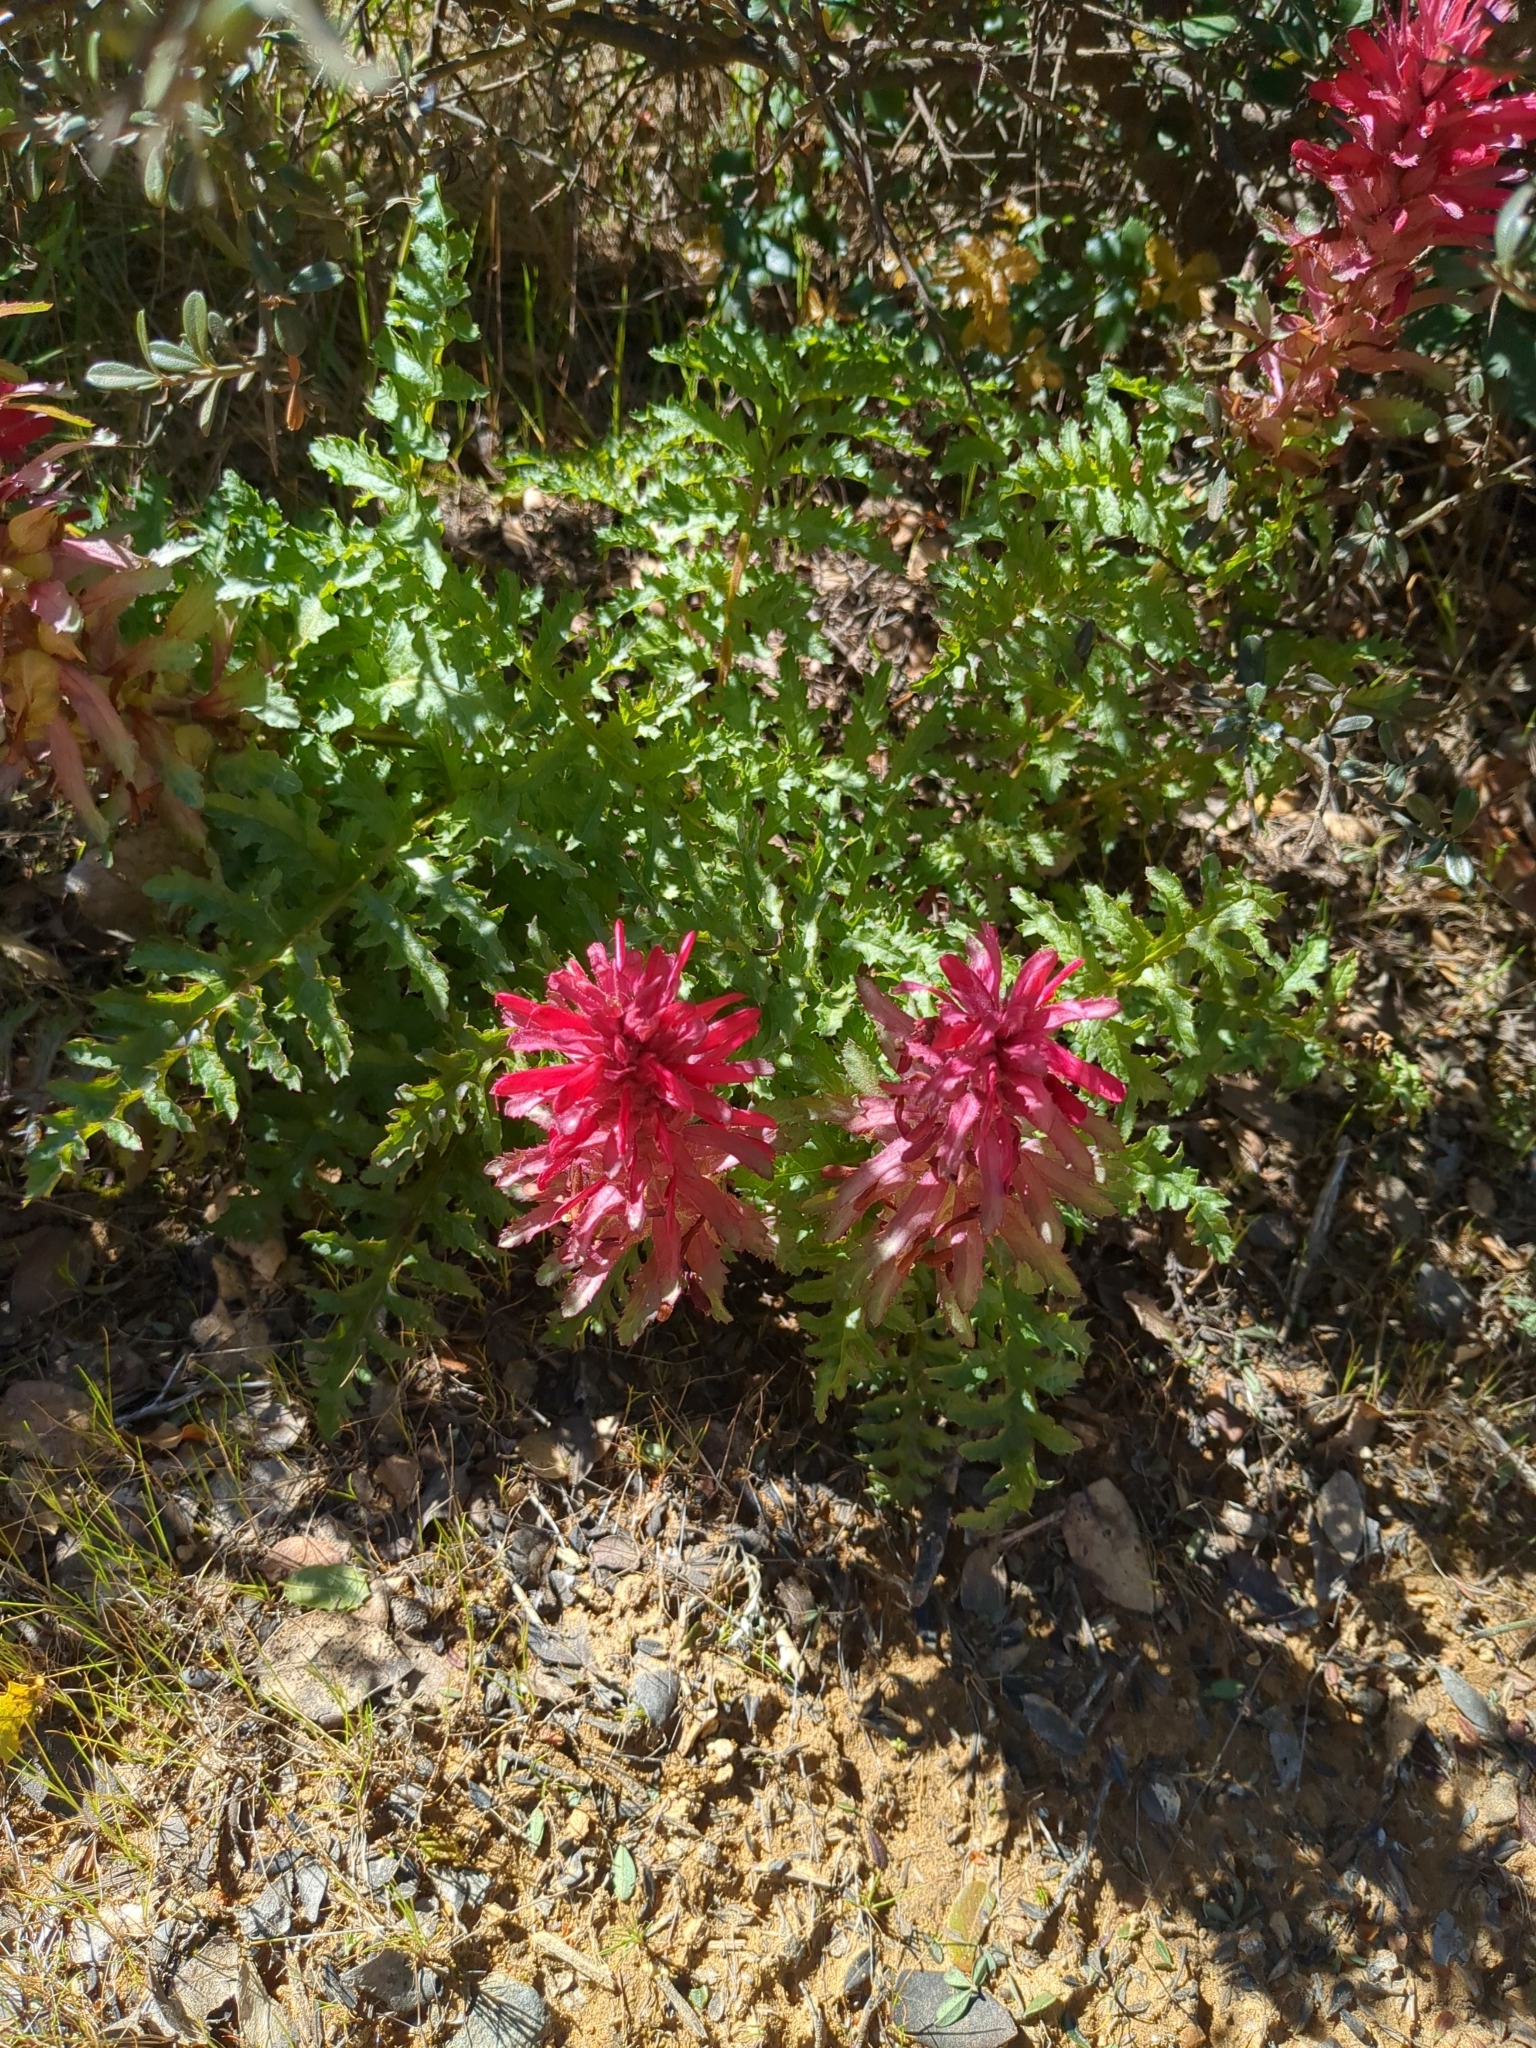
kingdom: Plantae
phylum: Tracheophyta
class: Magnoliopsida
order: Lamiales
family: Orobanchaceae
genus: Pedicularis
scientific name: Pedicularis densiflora
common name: Indian warrior
